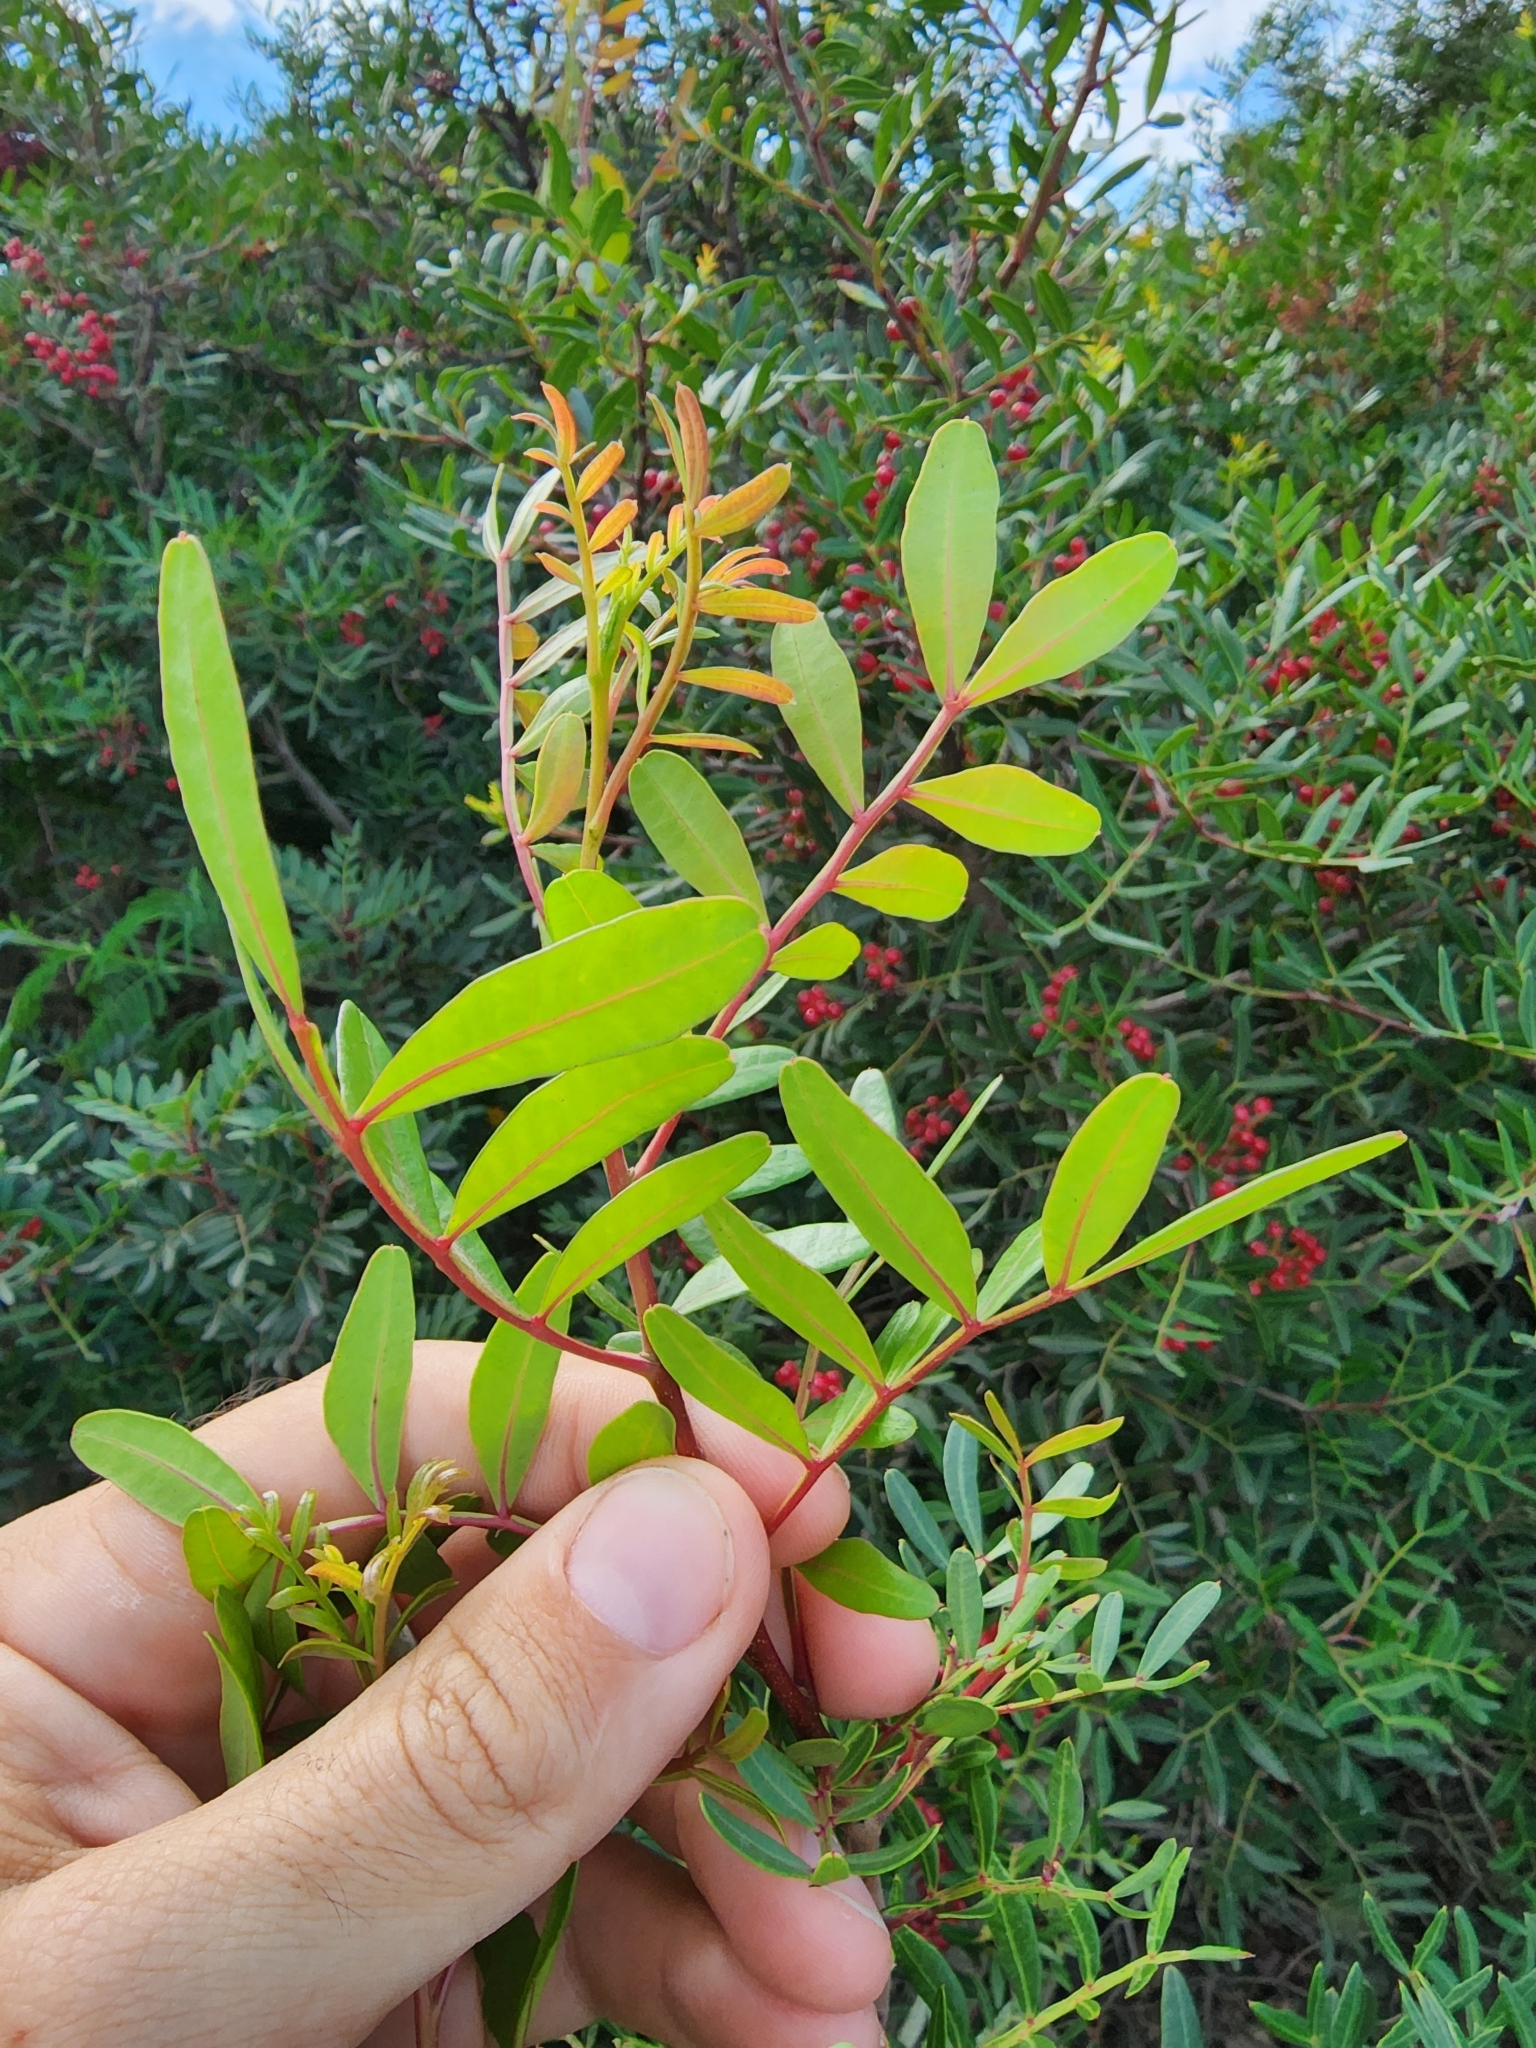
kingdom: Plantae
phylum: Tracheophyta
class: Magnoliopsida
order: Sapindales
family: Anacardiaceae
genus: Pistacia
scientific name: Pistacia lentiscus
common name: Lentisk
